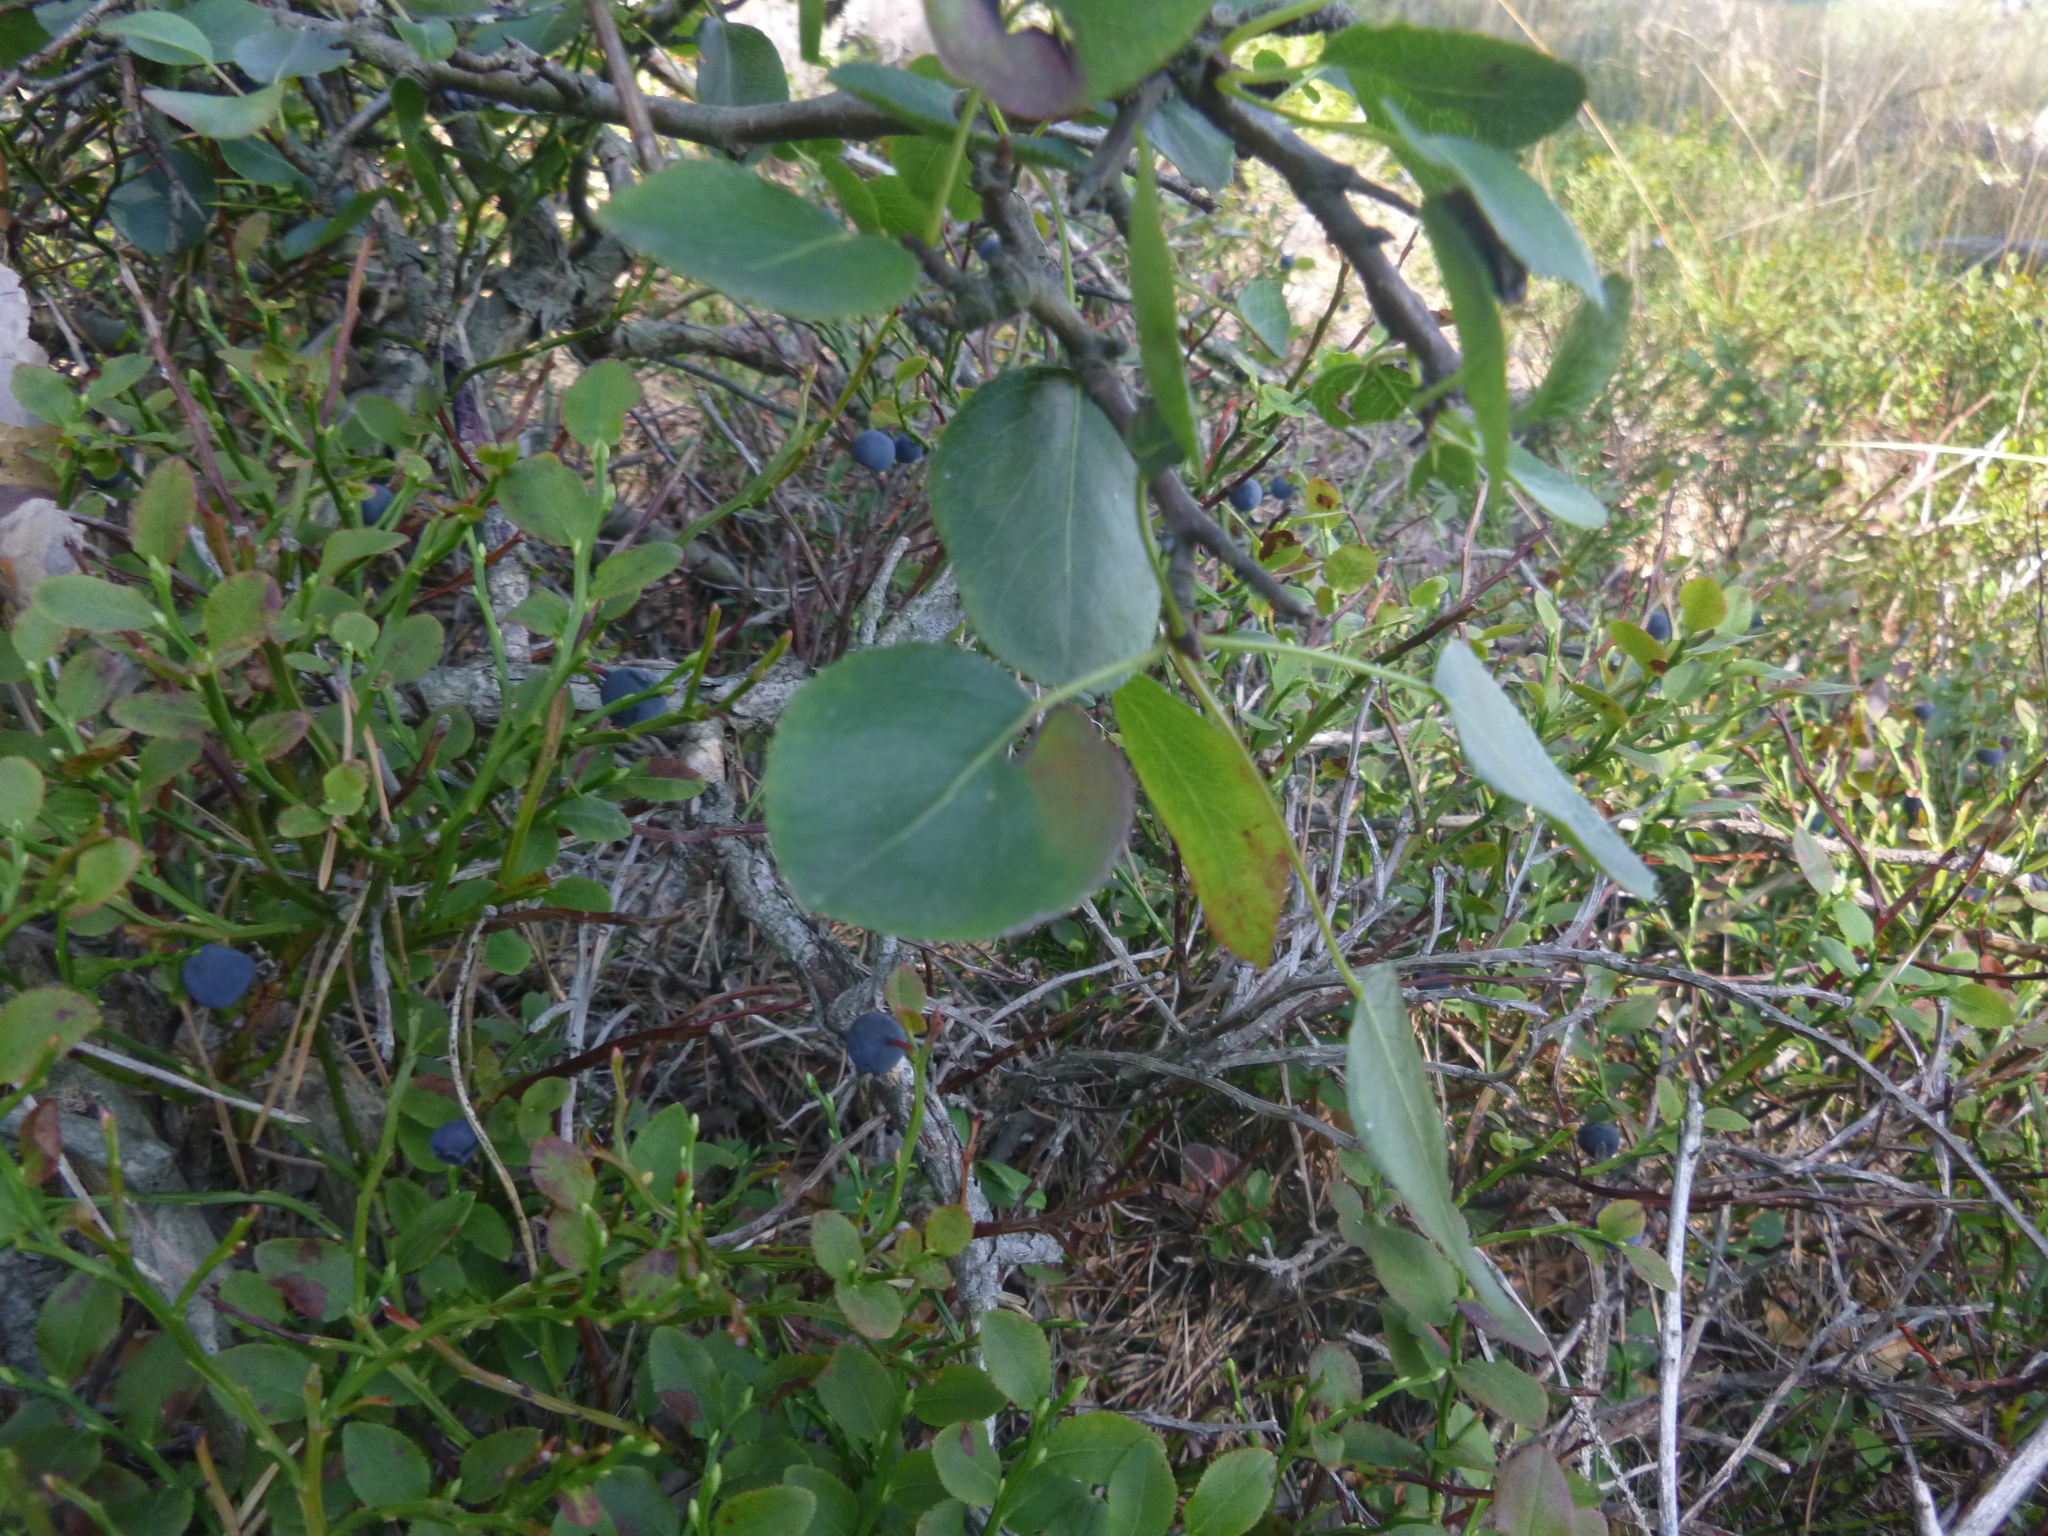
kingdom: Plantae
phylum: Tracheophyta
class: Magnoliopsida
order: Rosales
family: Rosaceae
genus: Pyrus
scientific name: Pyrus
